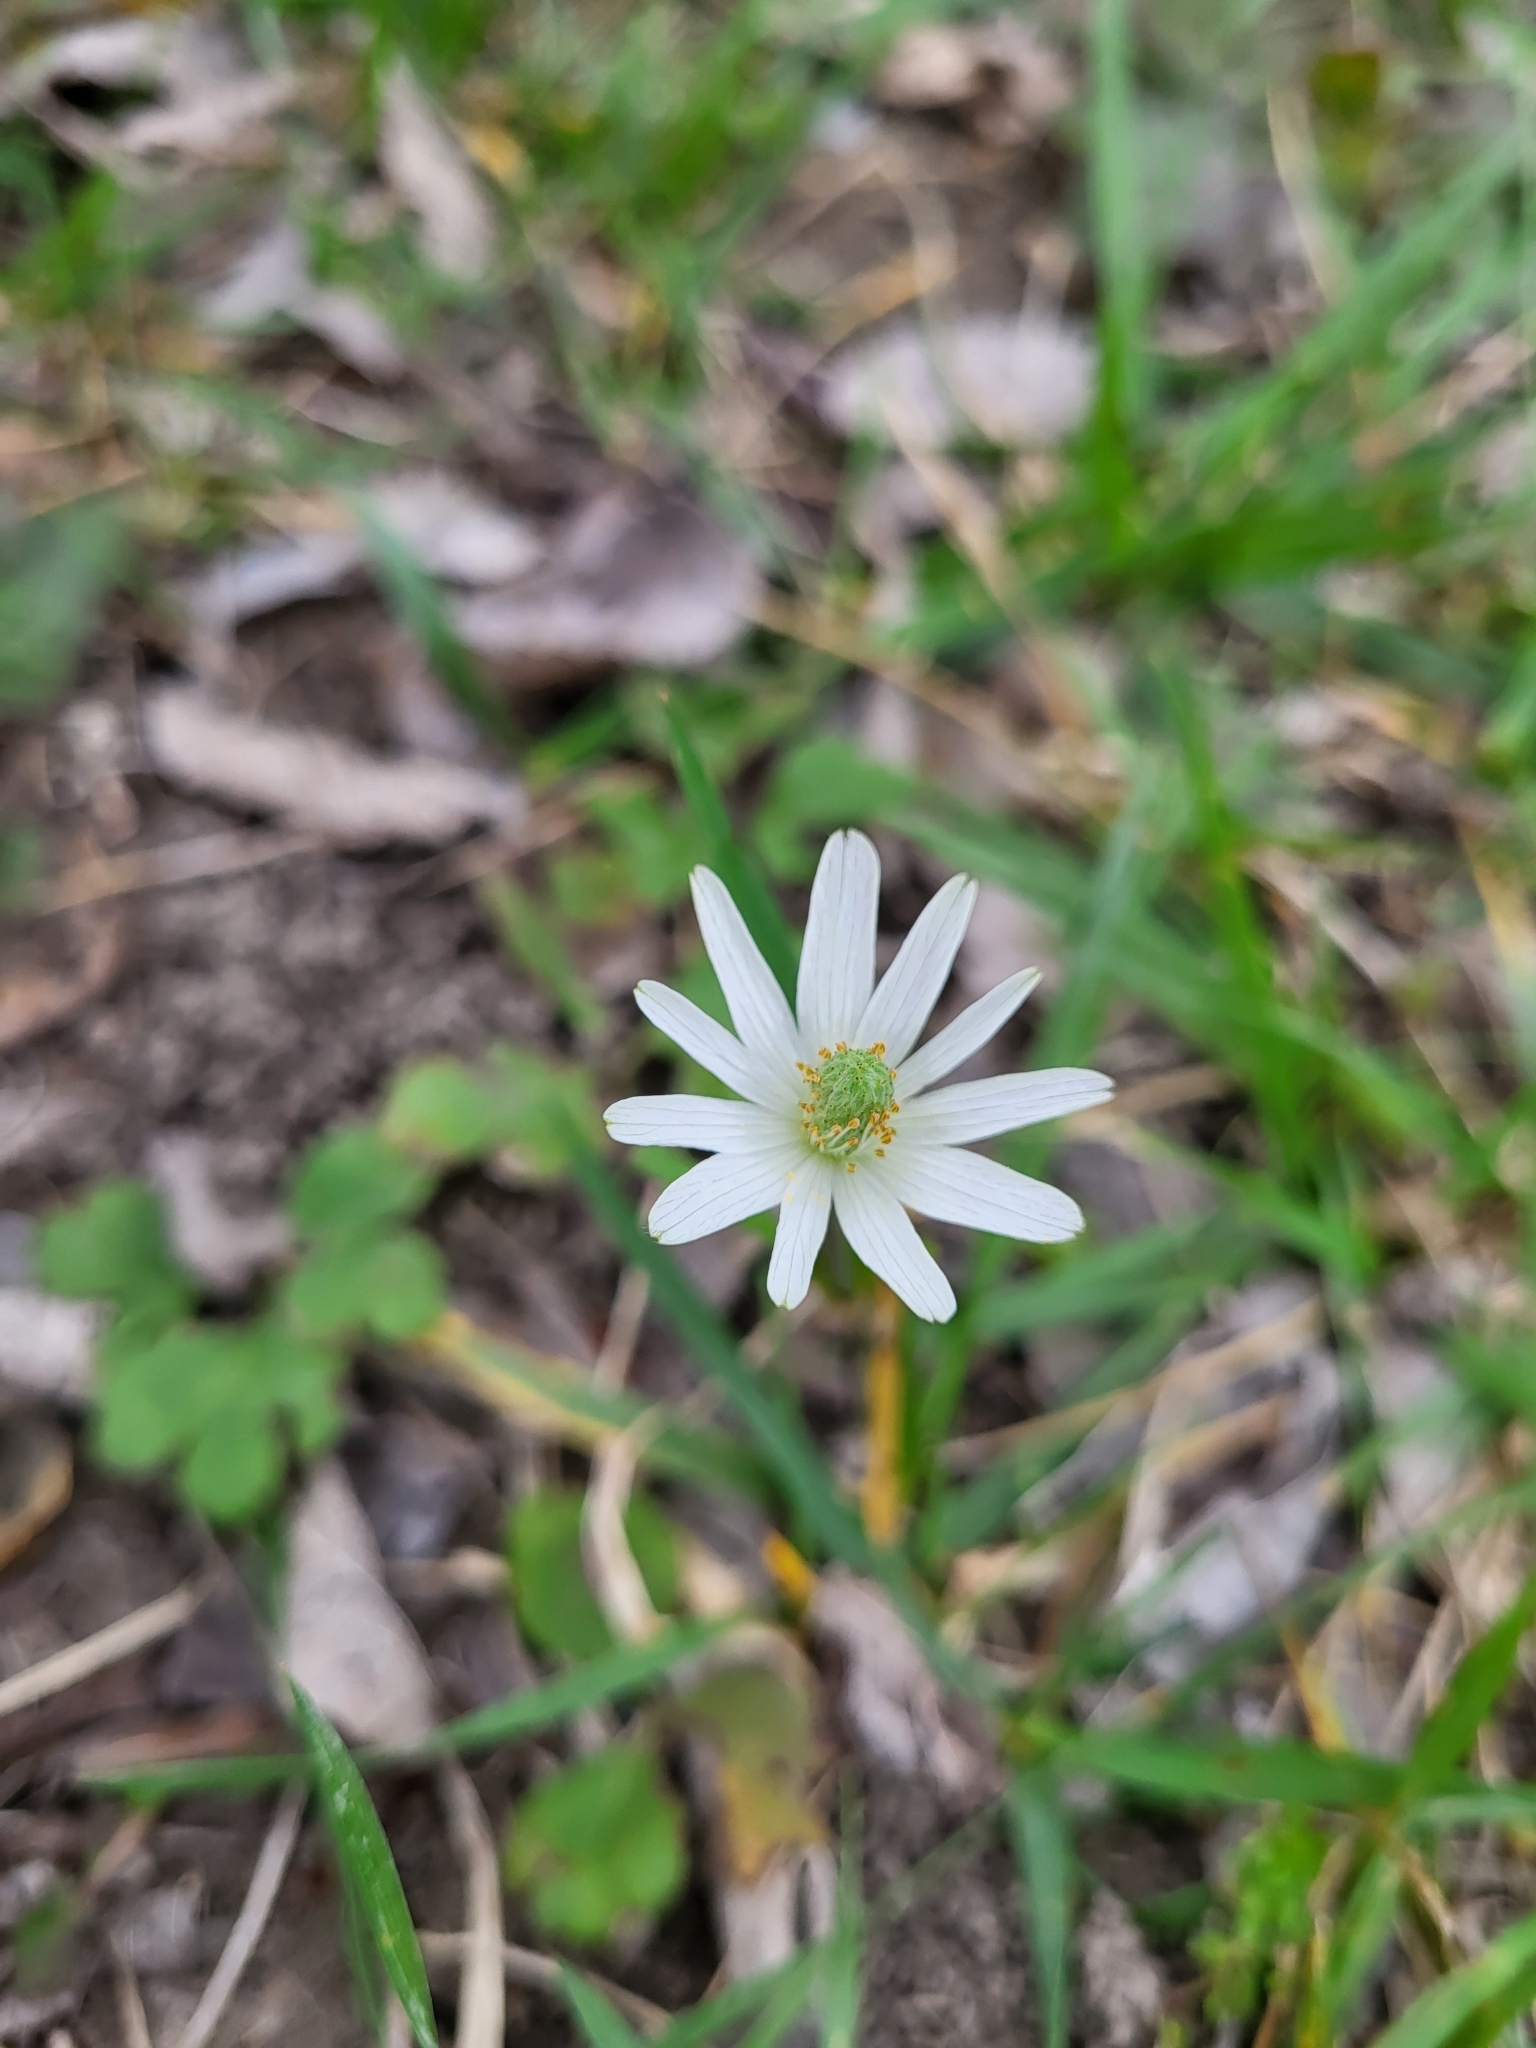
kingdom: Plantae
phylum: Tracheophyta
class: Magnoliopsida
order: Ranunculales
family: Ranunculaceae
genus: Anemone
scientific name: Anemone berlandieri
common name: Ten-petal anemone
